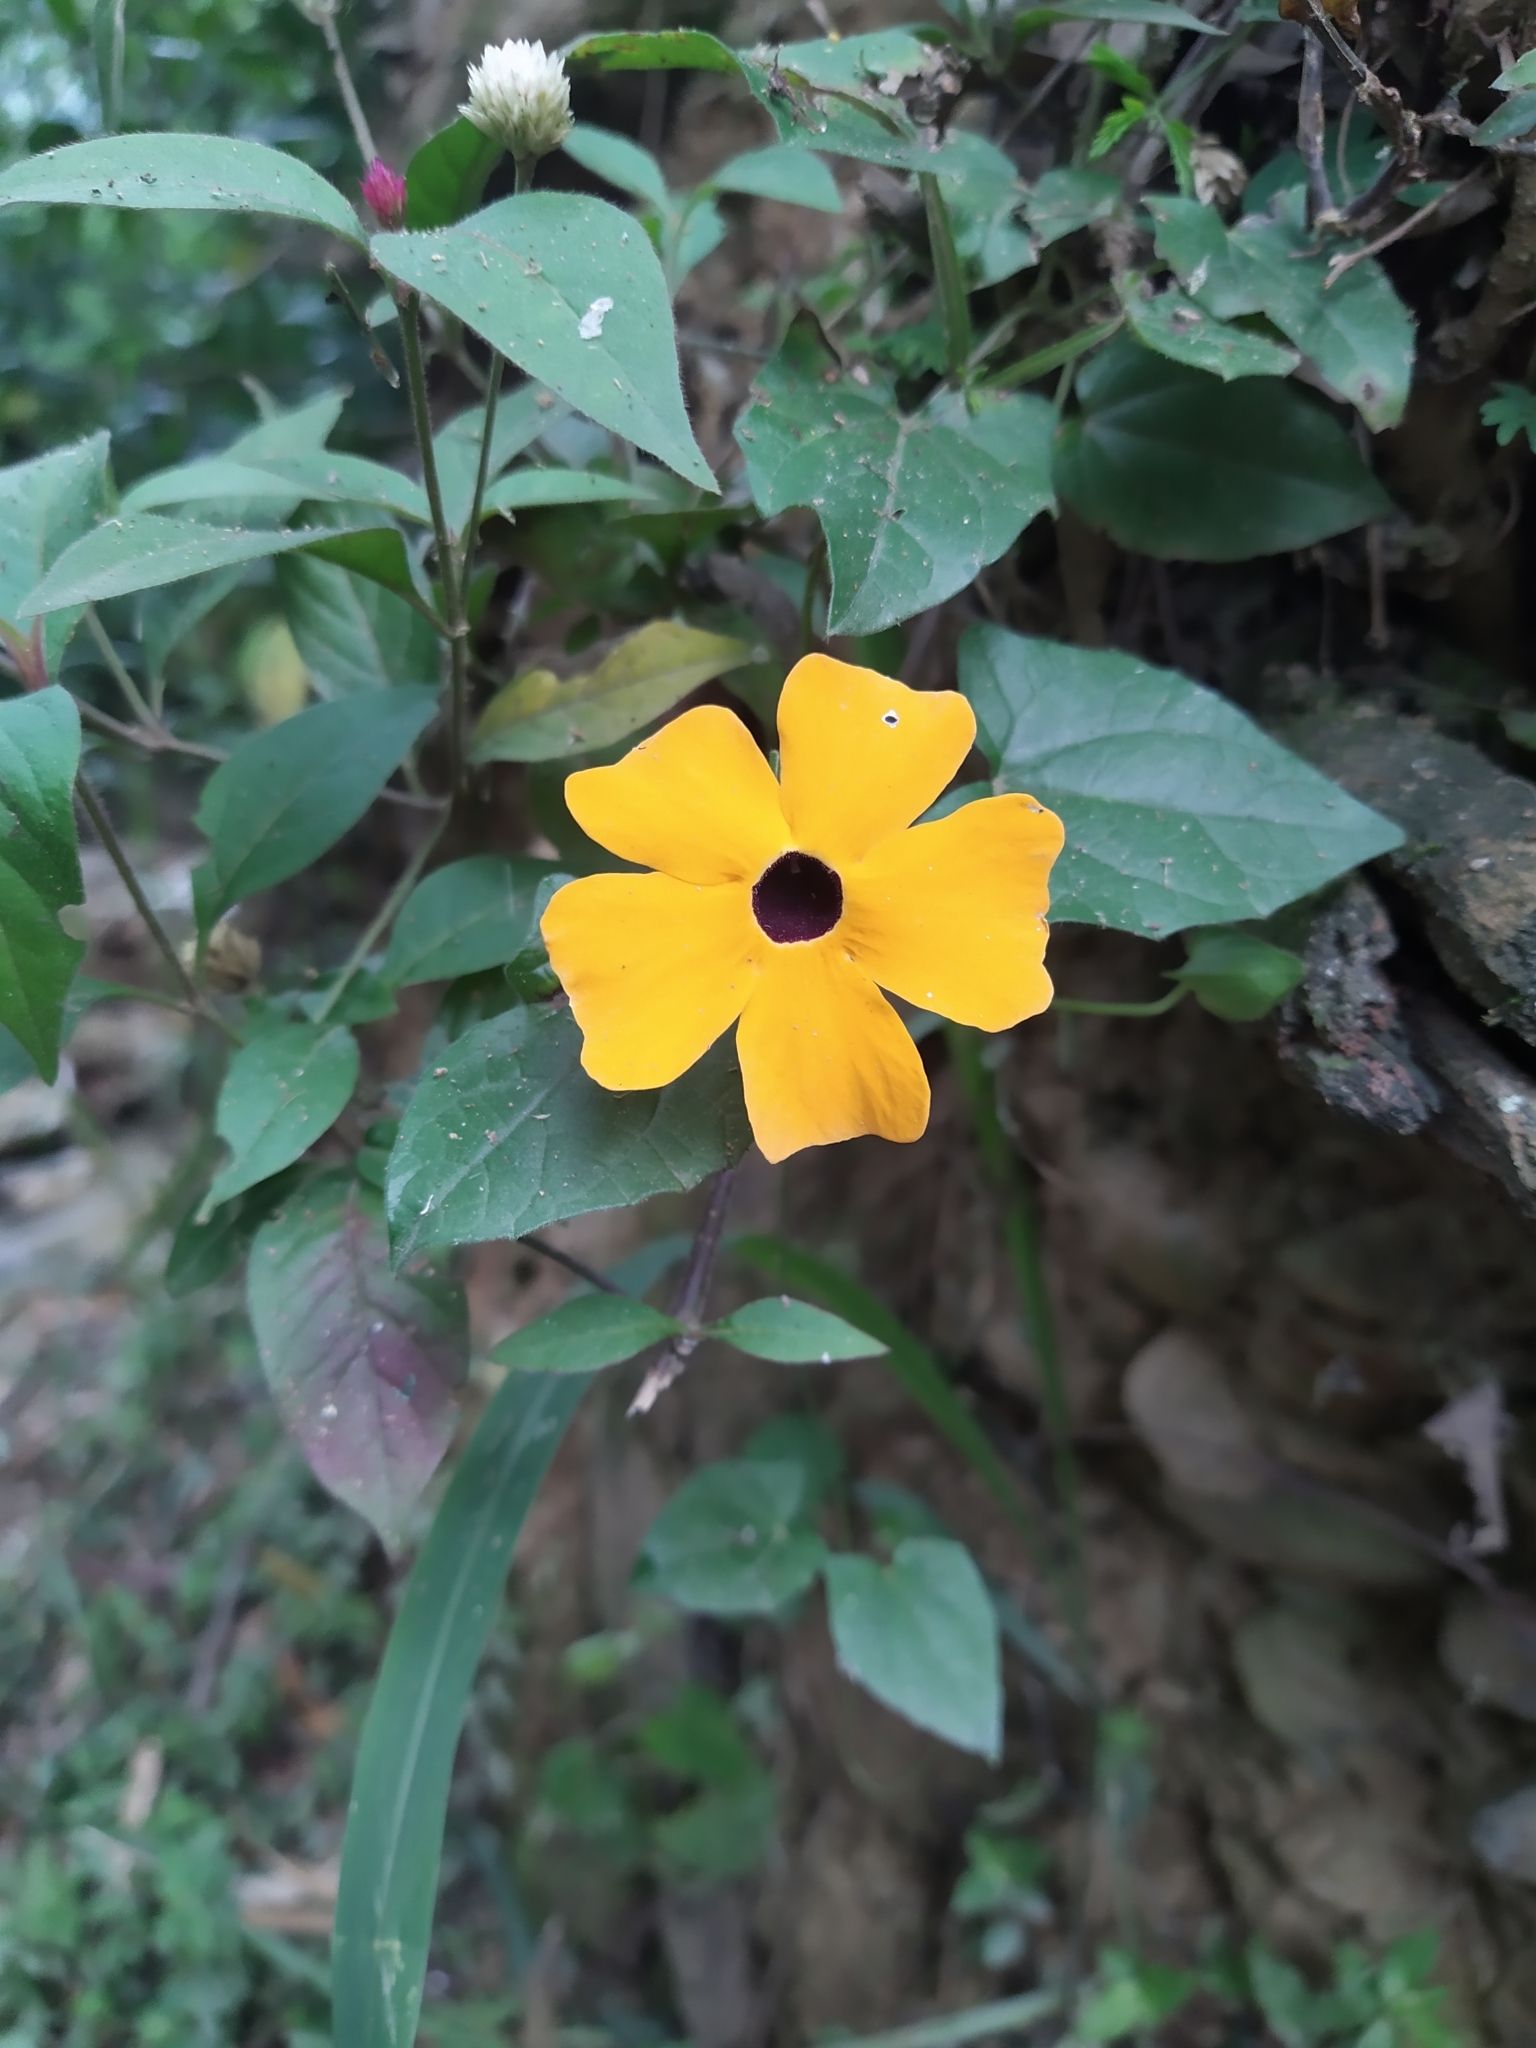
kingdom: Plantae
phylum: Tracheophyta
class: Magnoliopsida
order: Lamiales
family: Acanthaceae
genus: Thunbergia
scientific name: Thunbergia alata
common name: Blackeyed susan vine
